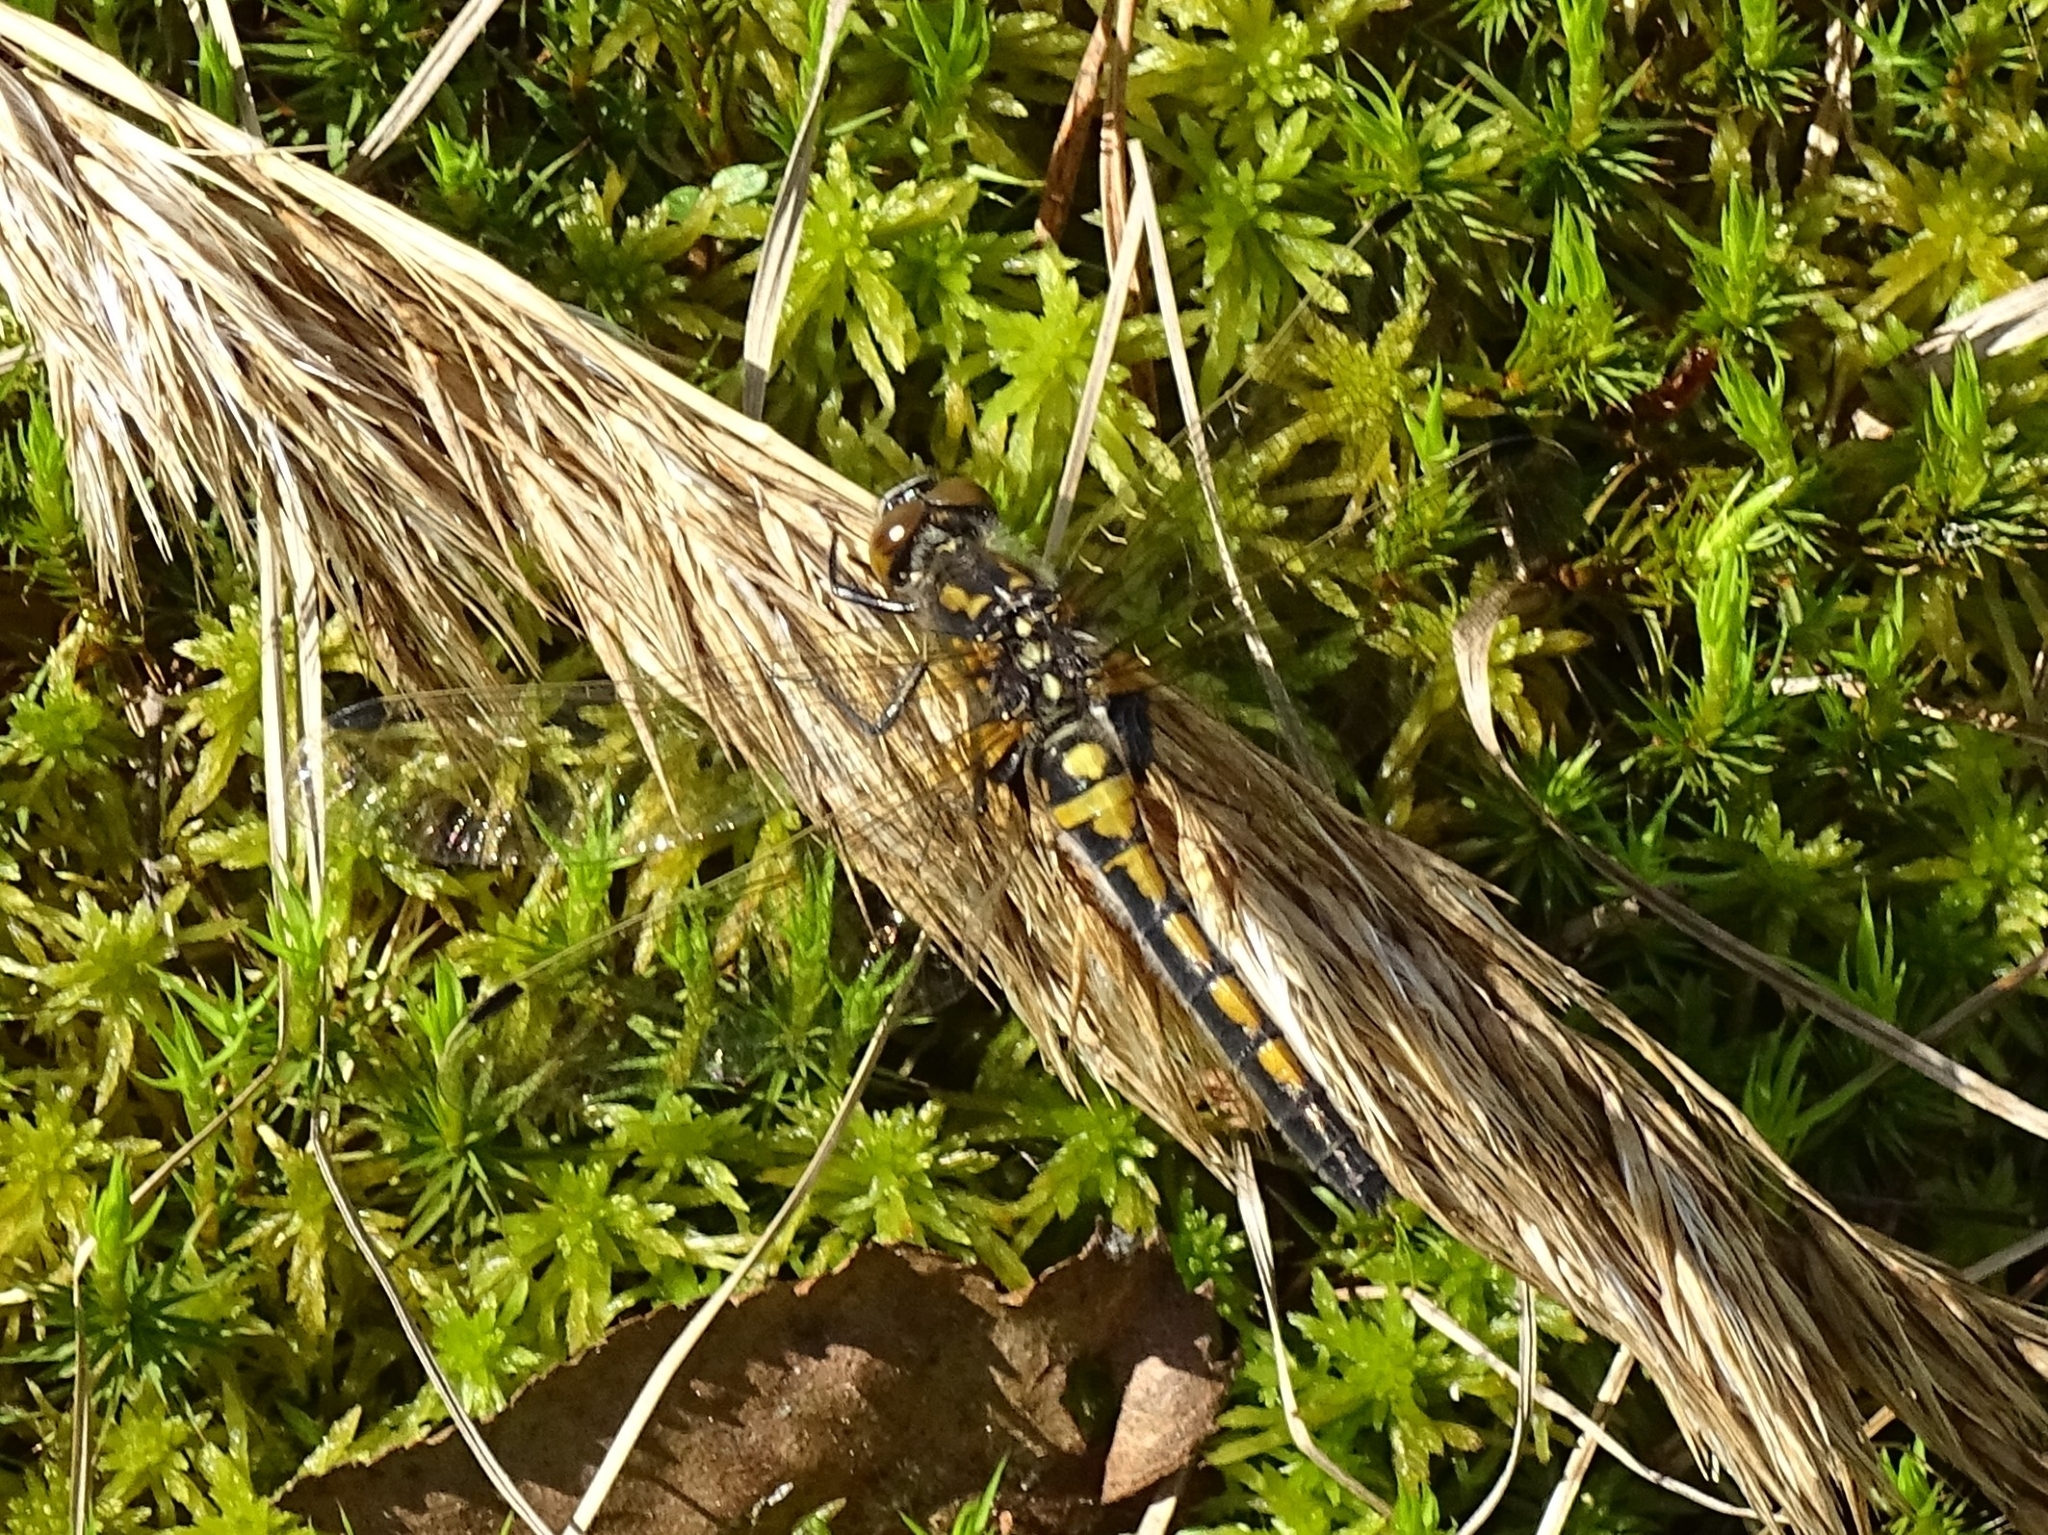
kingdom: Animalia
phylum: Arthropoda
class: Insecta
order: Odonata
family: Libellulidae
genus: Leucorrhinia
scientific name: Leucorrhinia rubicunda
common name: Ruby whiteface
